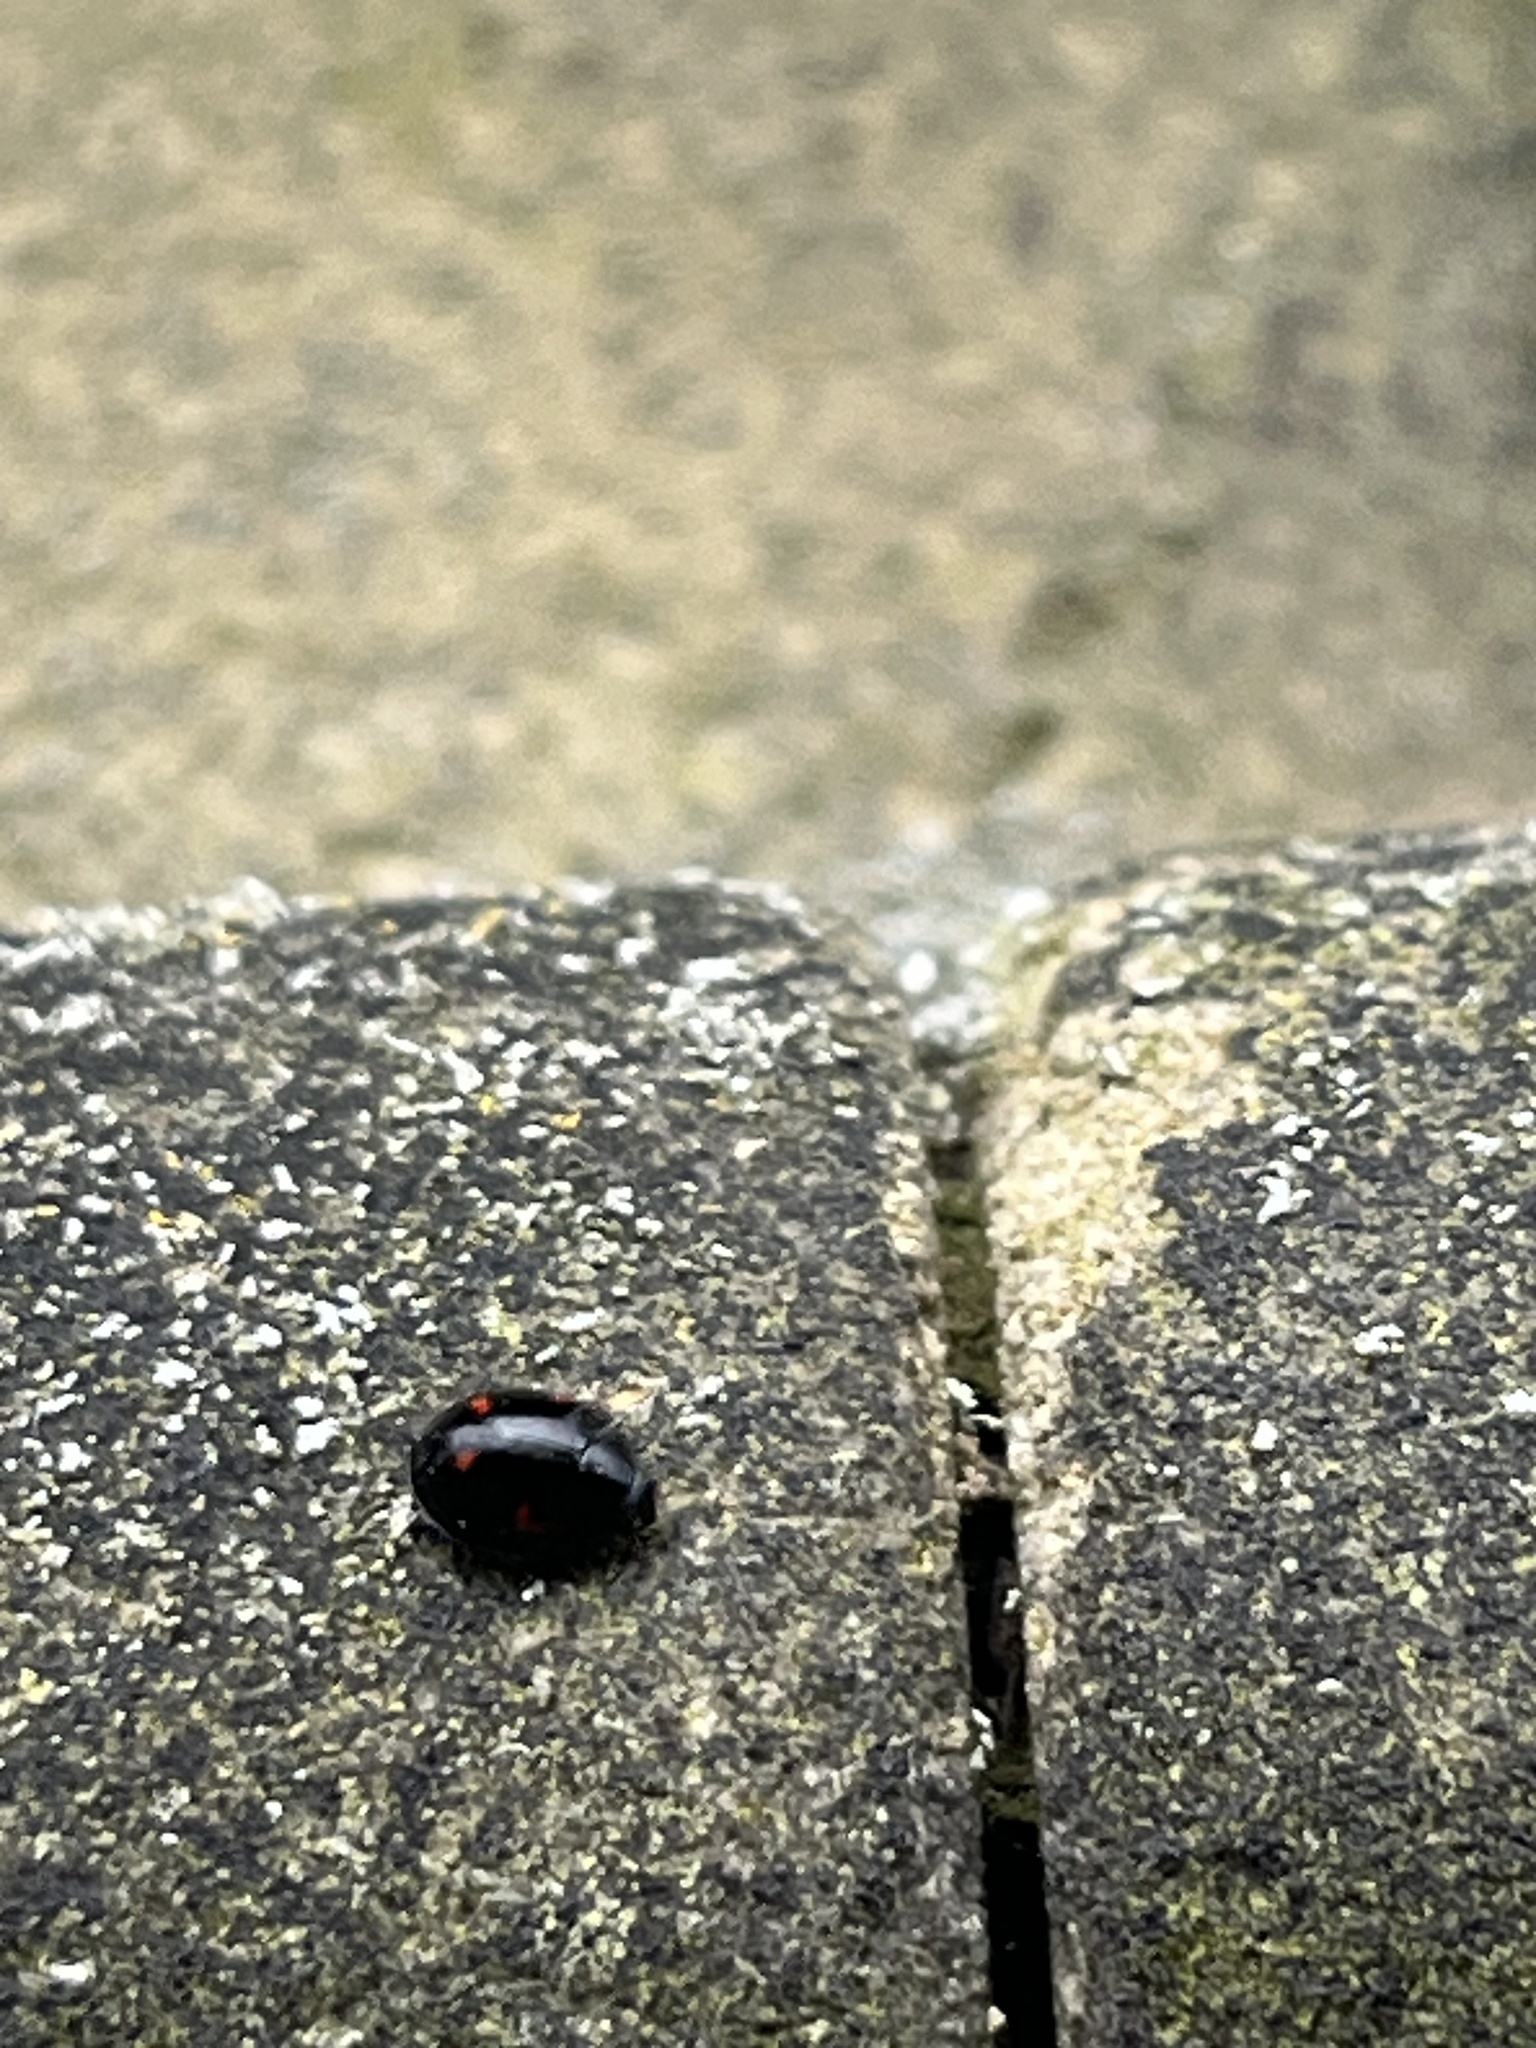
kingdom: Animalia
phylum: Arthropoda
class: Insecta
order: Coleoptera
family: Coccinellidae
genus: Brumus
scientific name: Brumus quadripustulatus
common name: Ladybird beetle
